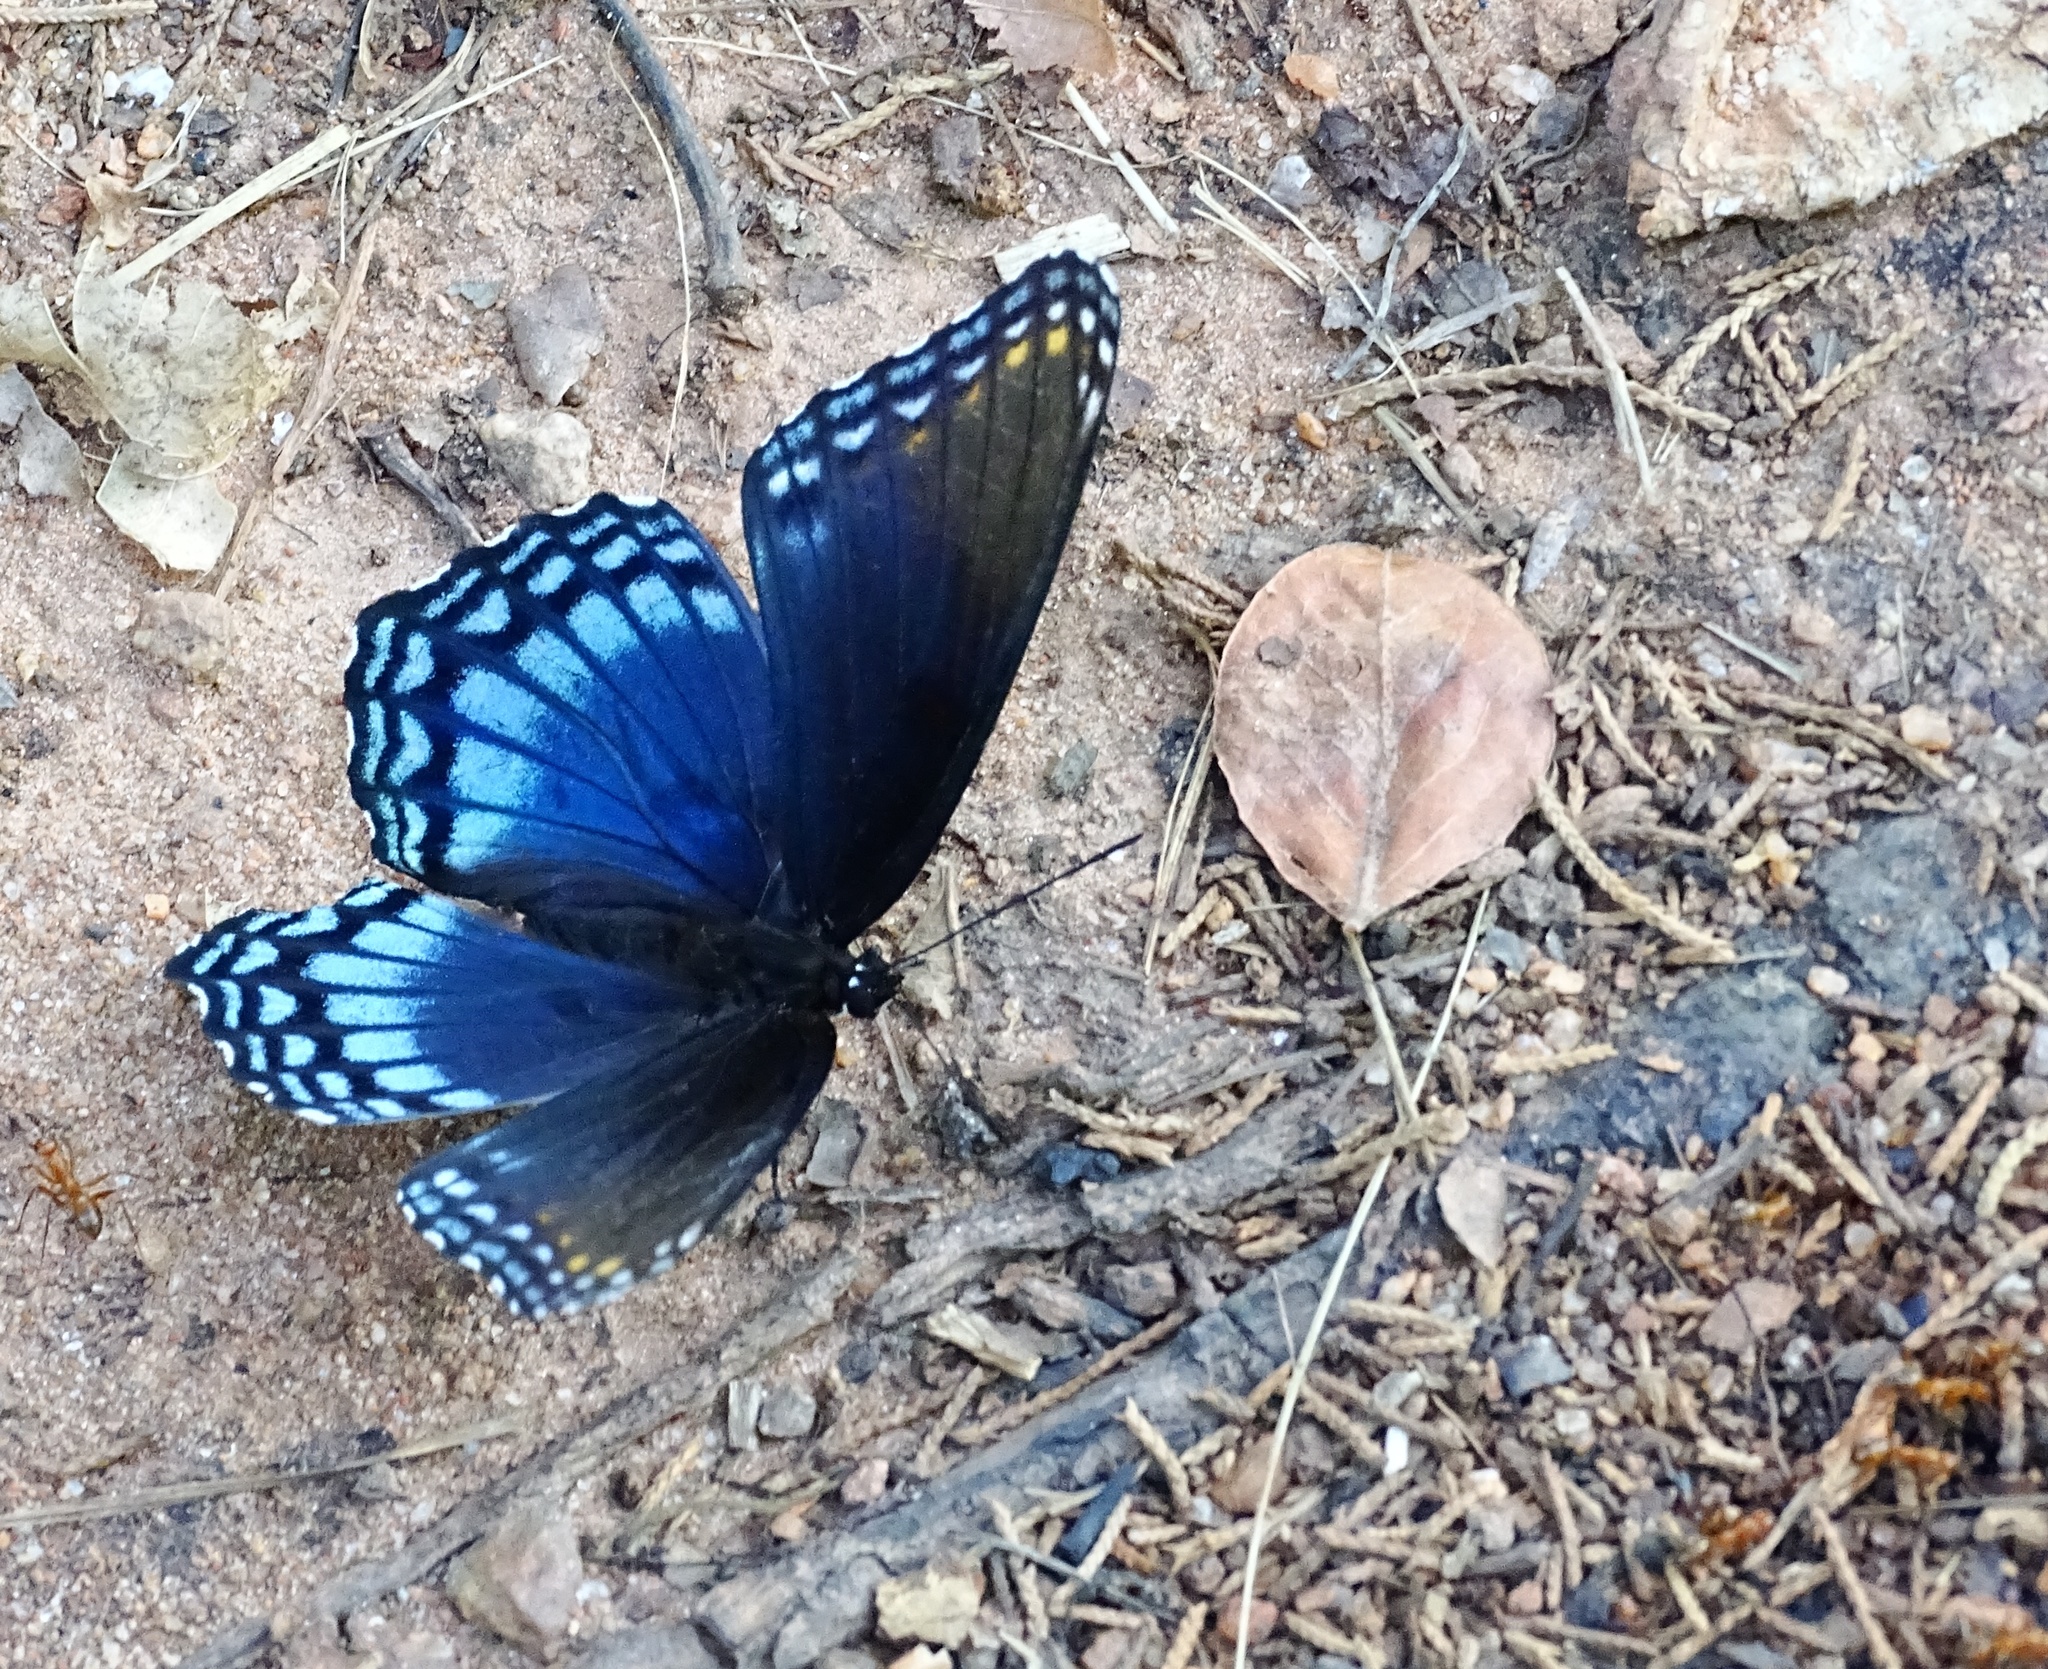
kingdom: Animalia
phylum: Arthropoda
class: Insecta
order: Lepidoptera
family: Nymphalidae
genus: Limenitis
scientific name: Limenitis astyanax
